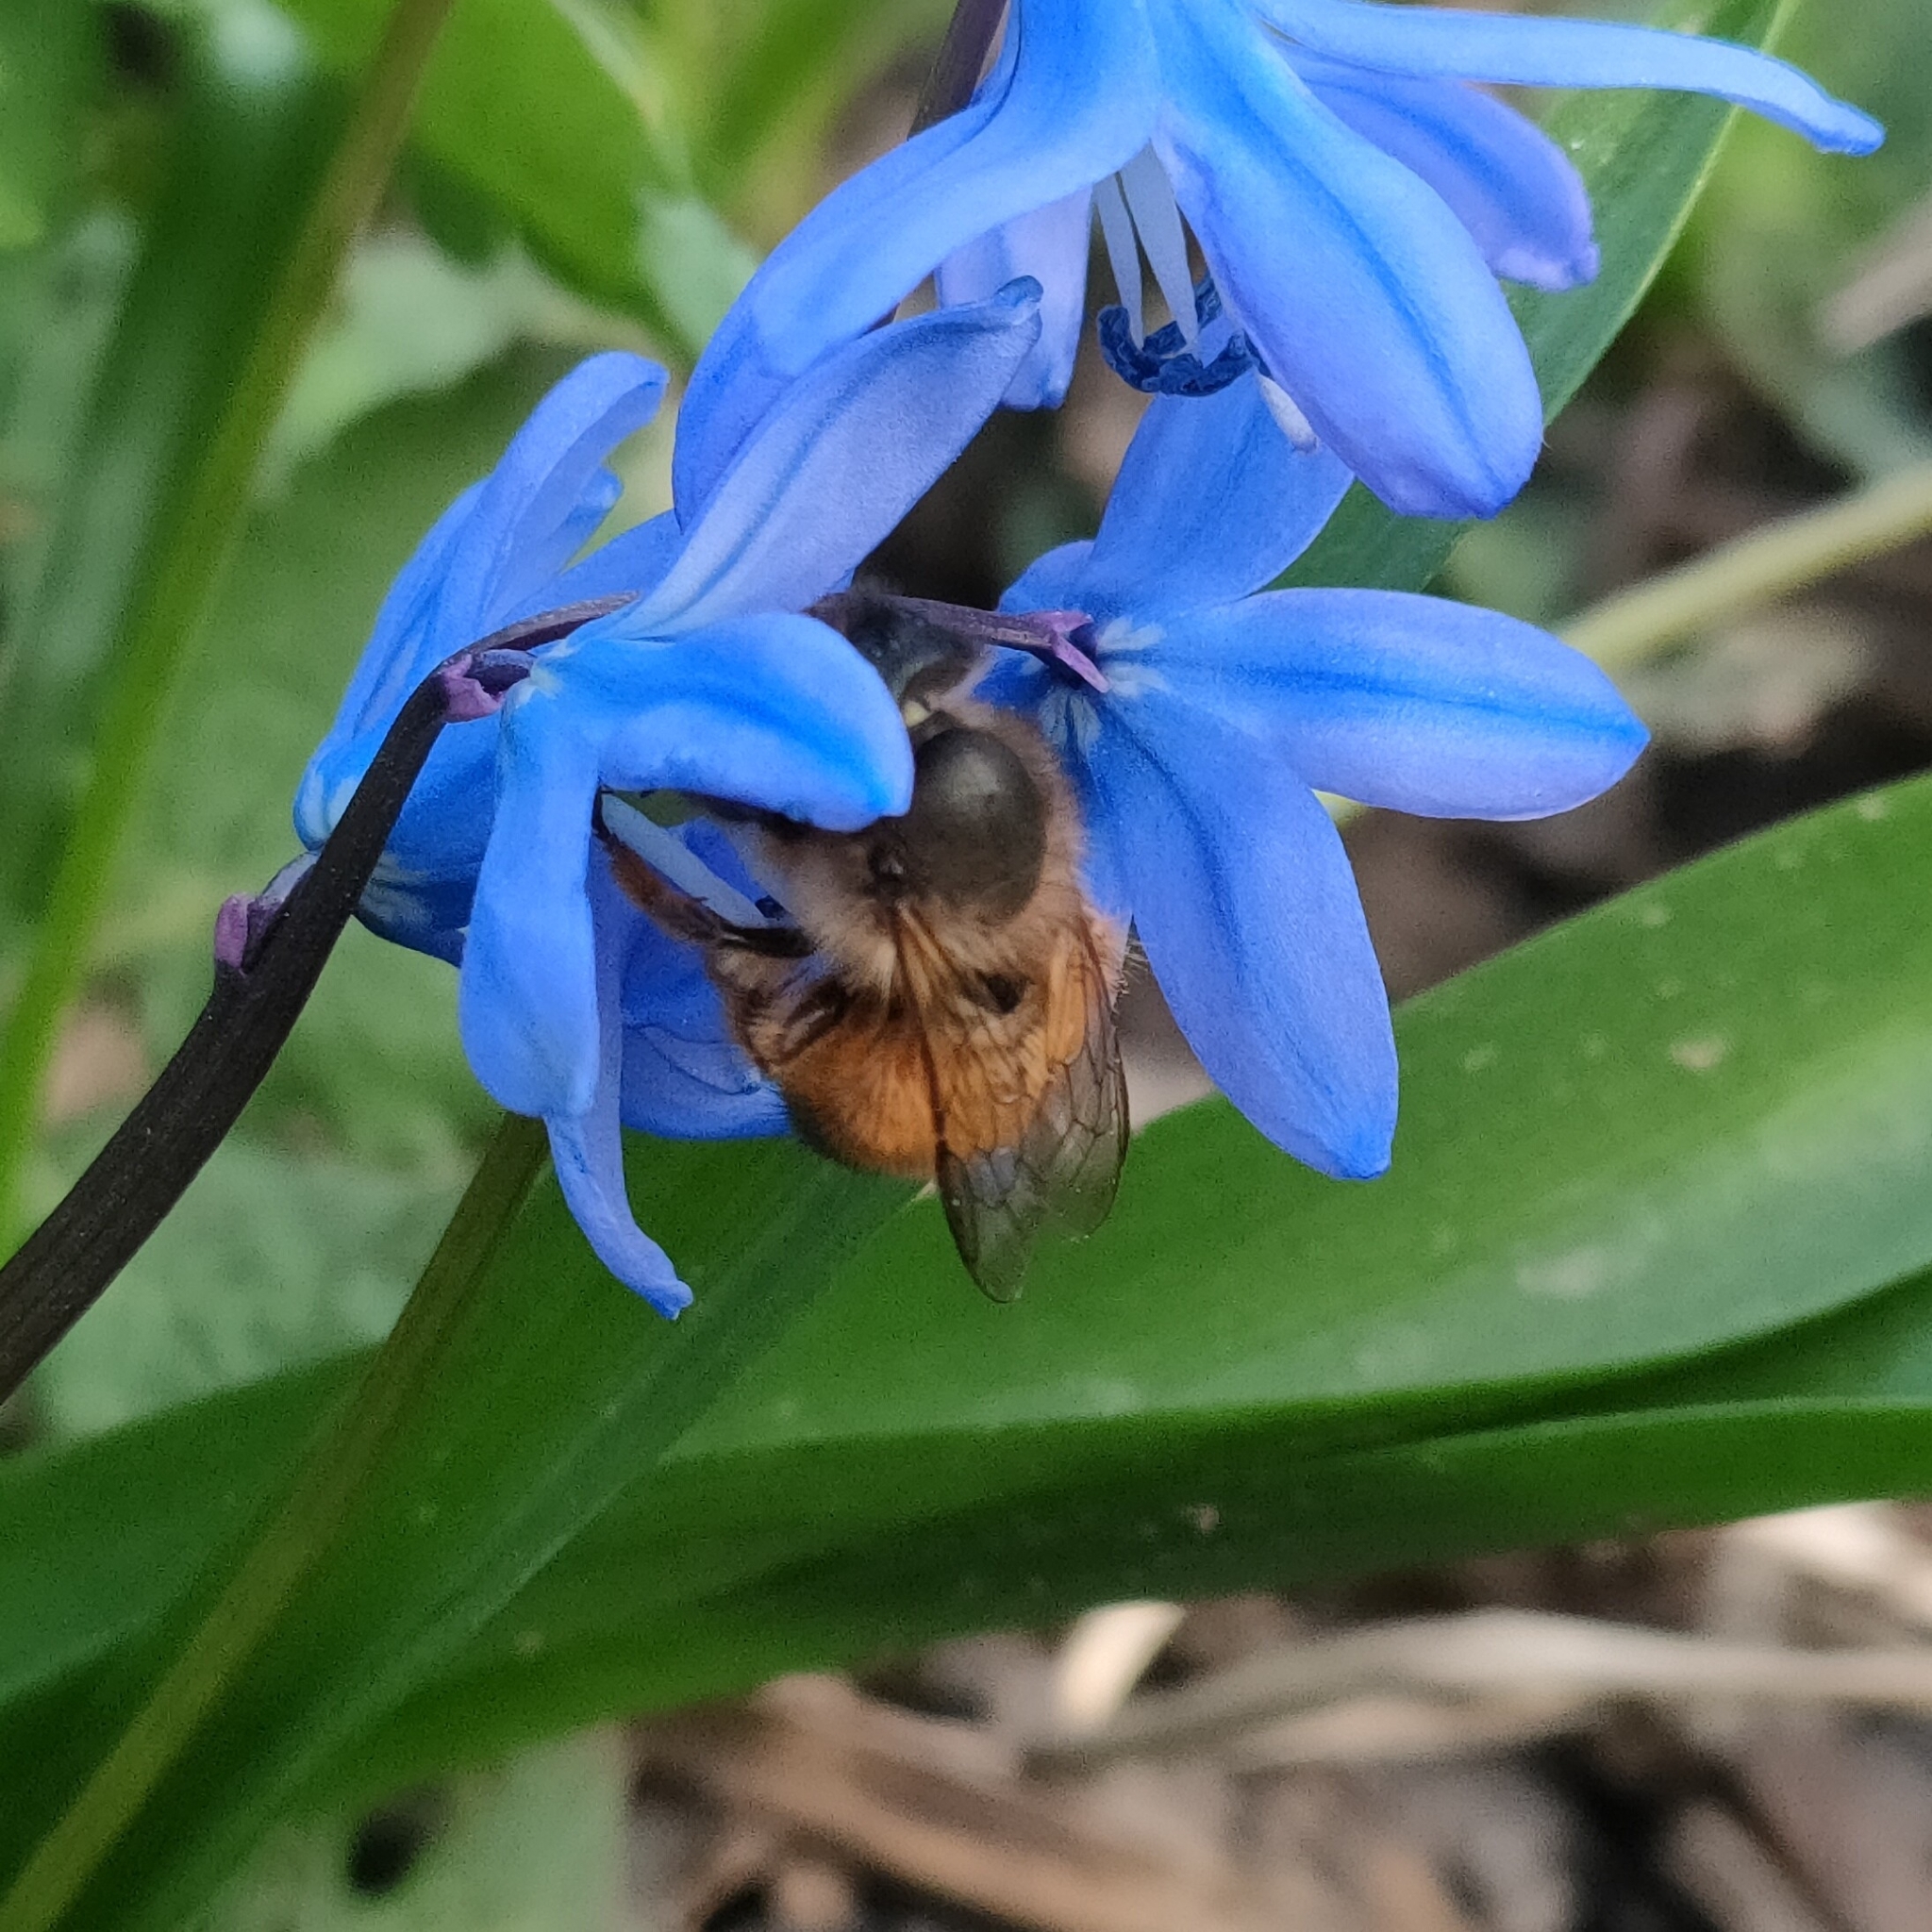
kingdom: Animalia
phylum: Arthropoda
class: Insecta
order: Hymenoptera
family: Megachilidae
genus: Osmia
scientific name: Osmia bicornis
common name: Red mason bee
